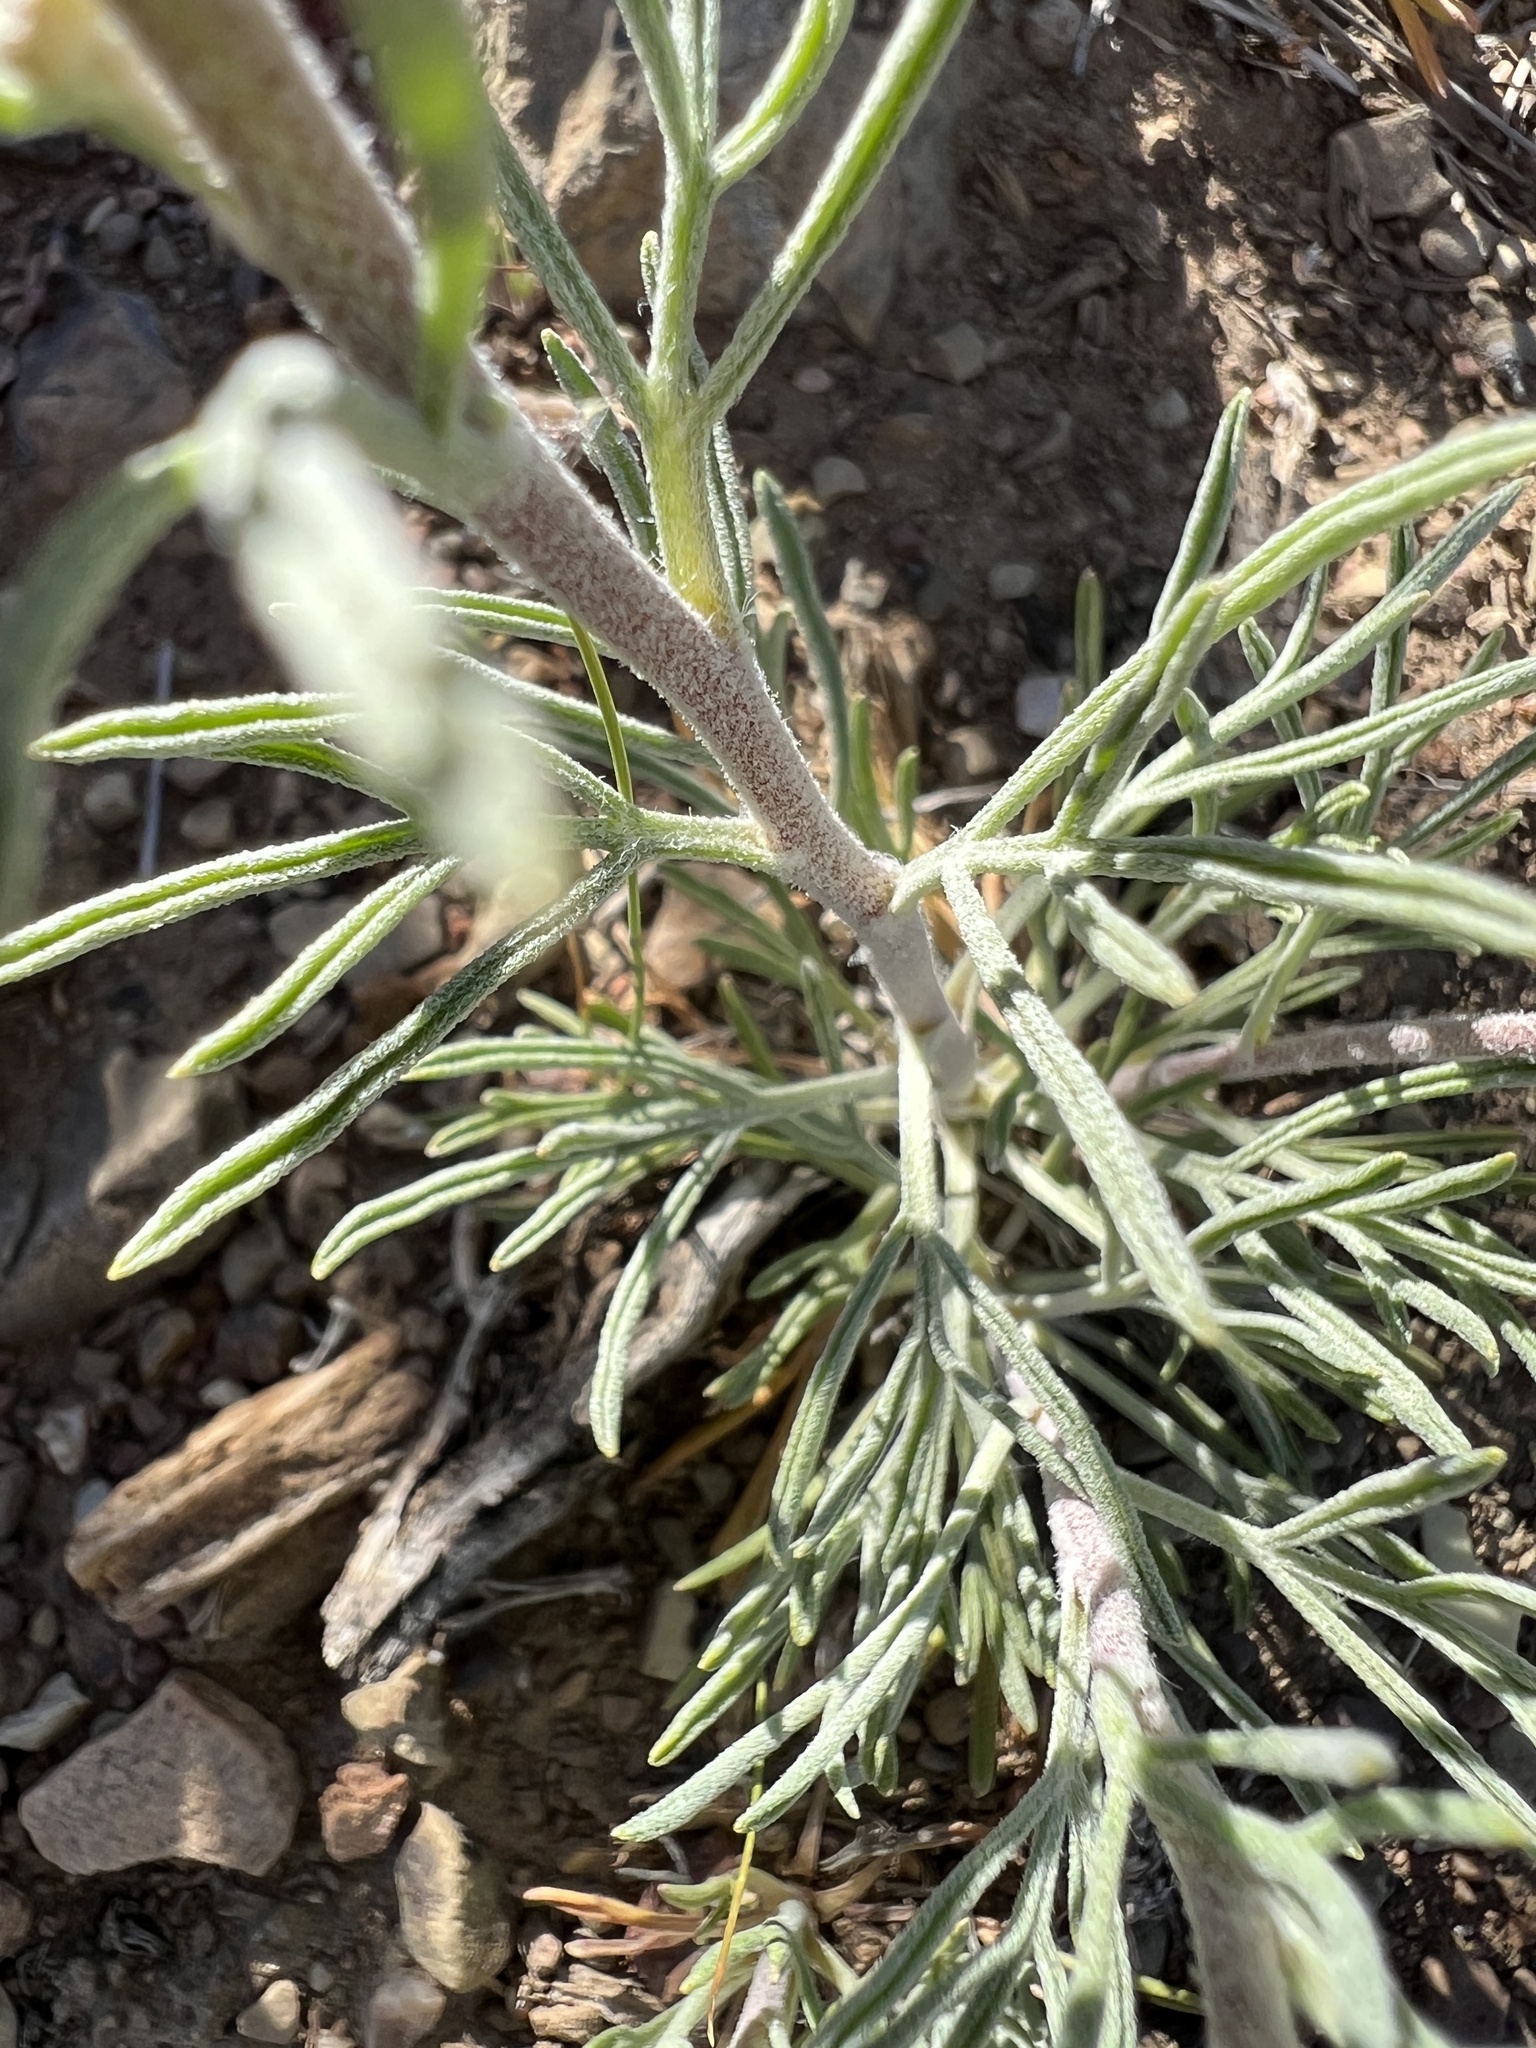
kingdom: Plantae
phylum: Tracheophyta
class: Magnoliopsida
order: Asterales
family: Asteraceae
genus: Hymenoxys
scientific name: Hymenoxys cooperi
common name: Cooper's bitterweed
